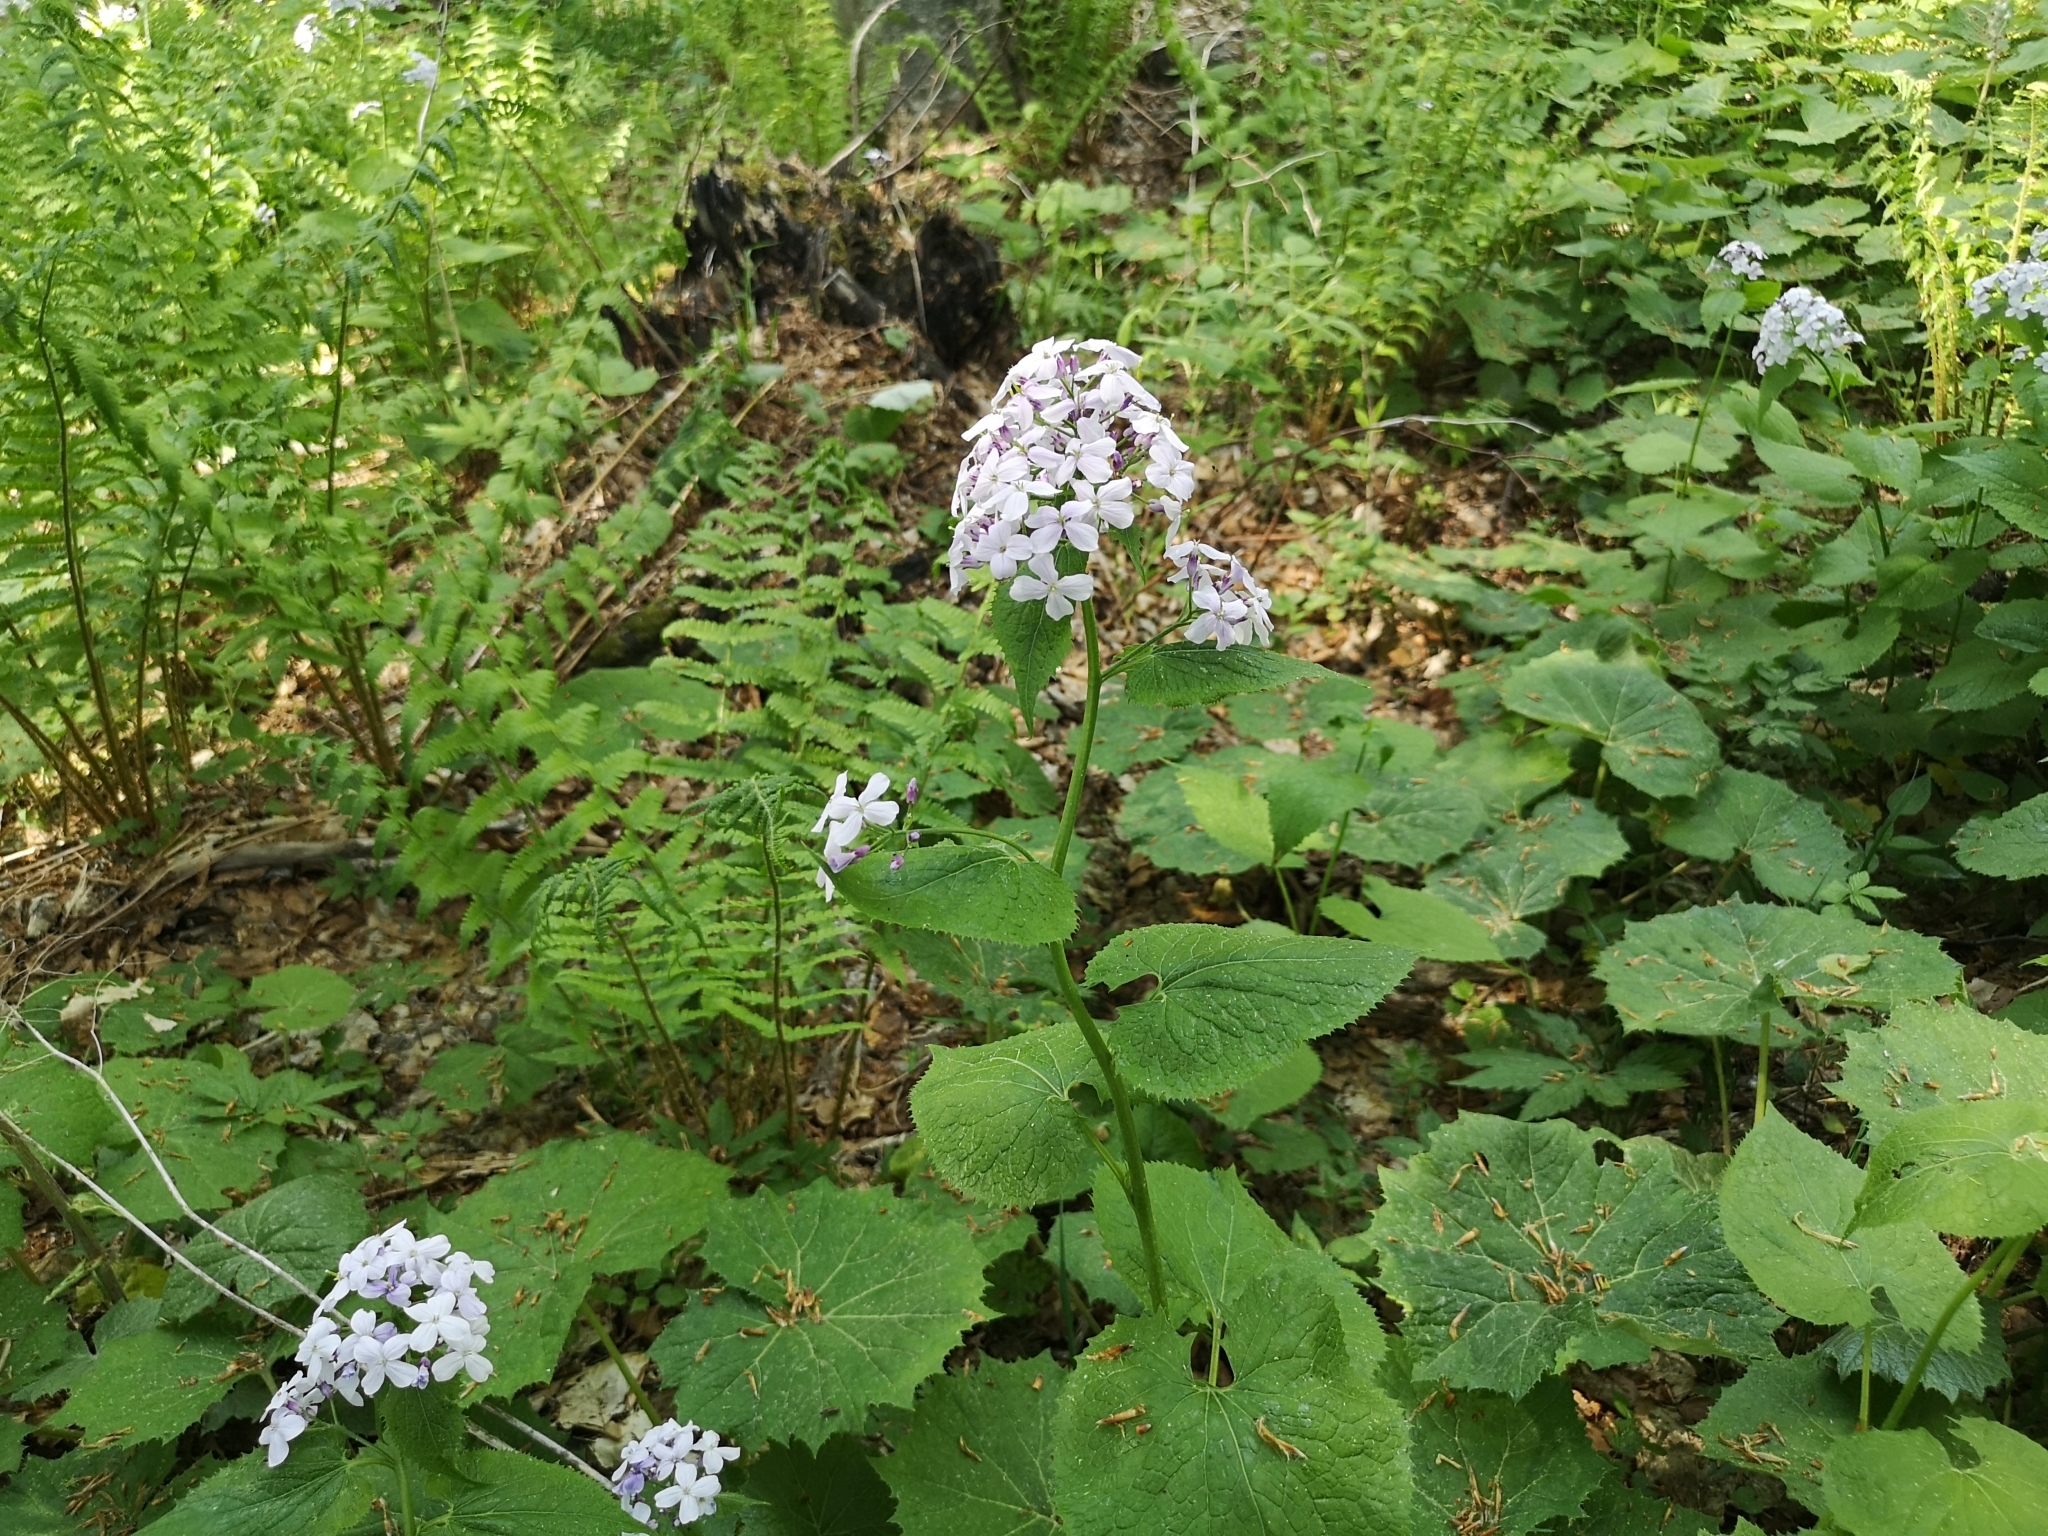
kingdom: Plantae
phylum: Tracheophyta
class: Magnoliopsida
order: Brassicales
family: Brassicaceae
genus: Lunaria
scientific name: Lunaria rediviva
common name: Perennial honesty
